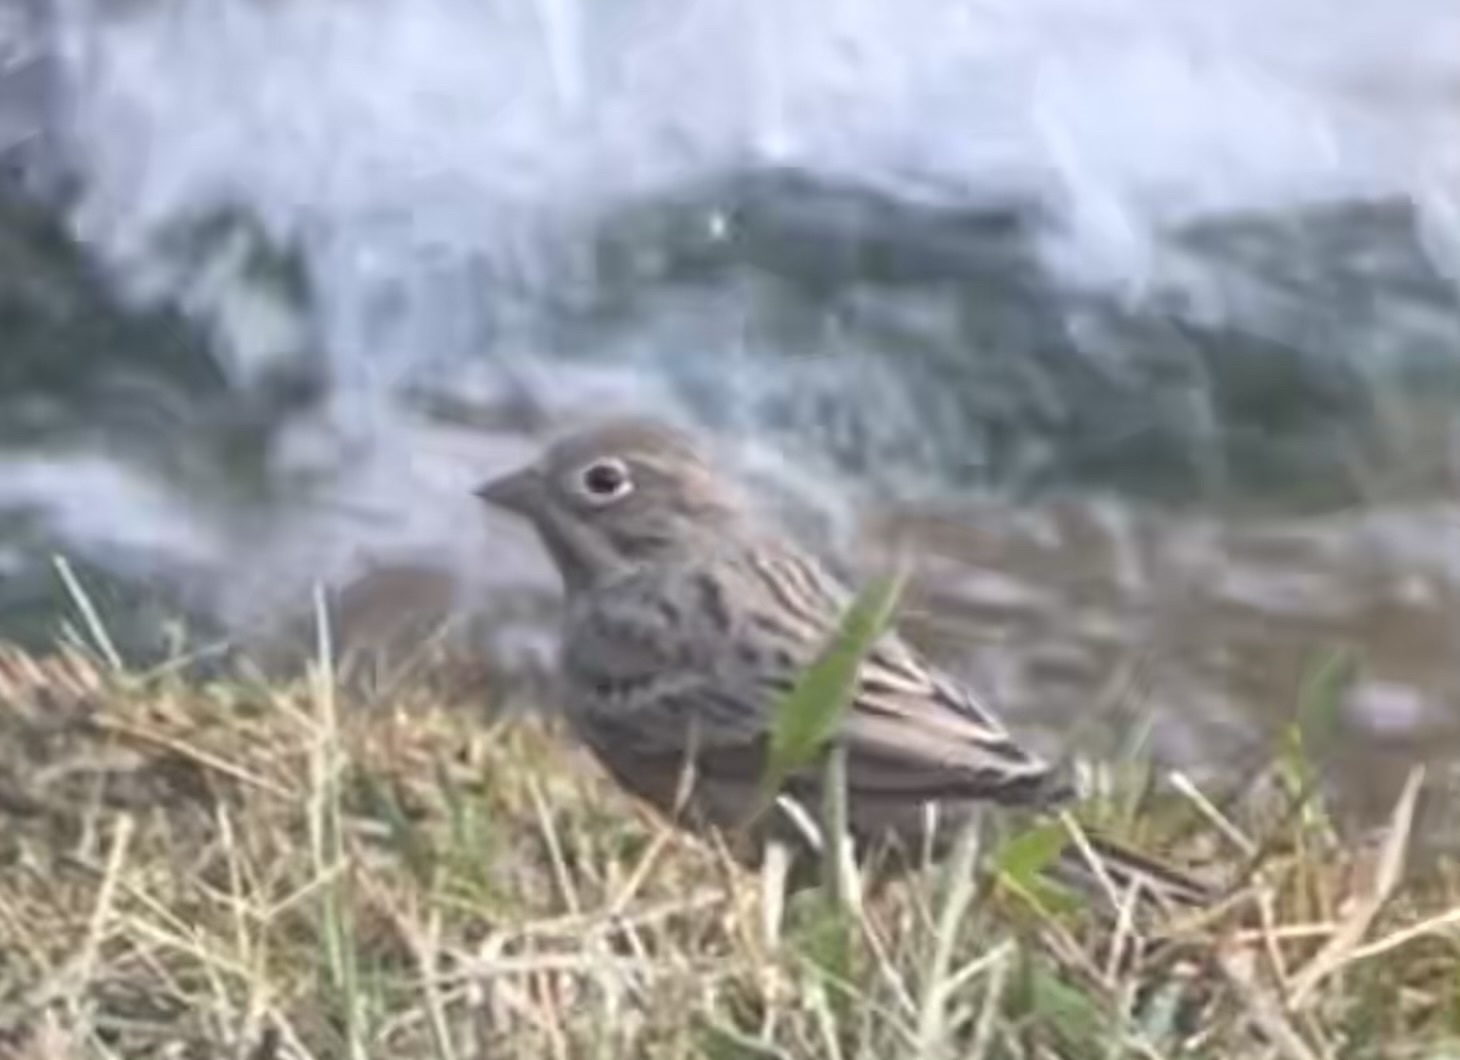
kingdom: Animalia
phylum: Chordata
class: Aves
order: Passeriformes
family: Emberizidae
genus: Emberiza
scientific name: Emberiza caesia
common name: Cretzschmar's bunting
